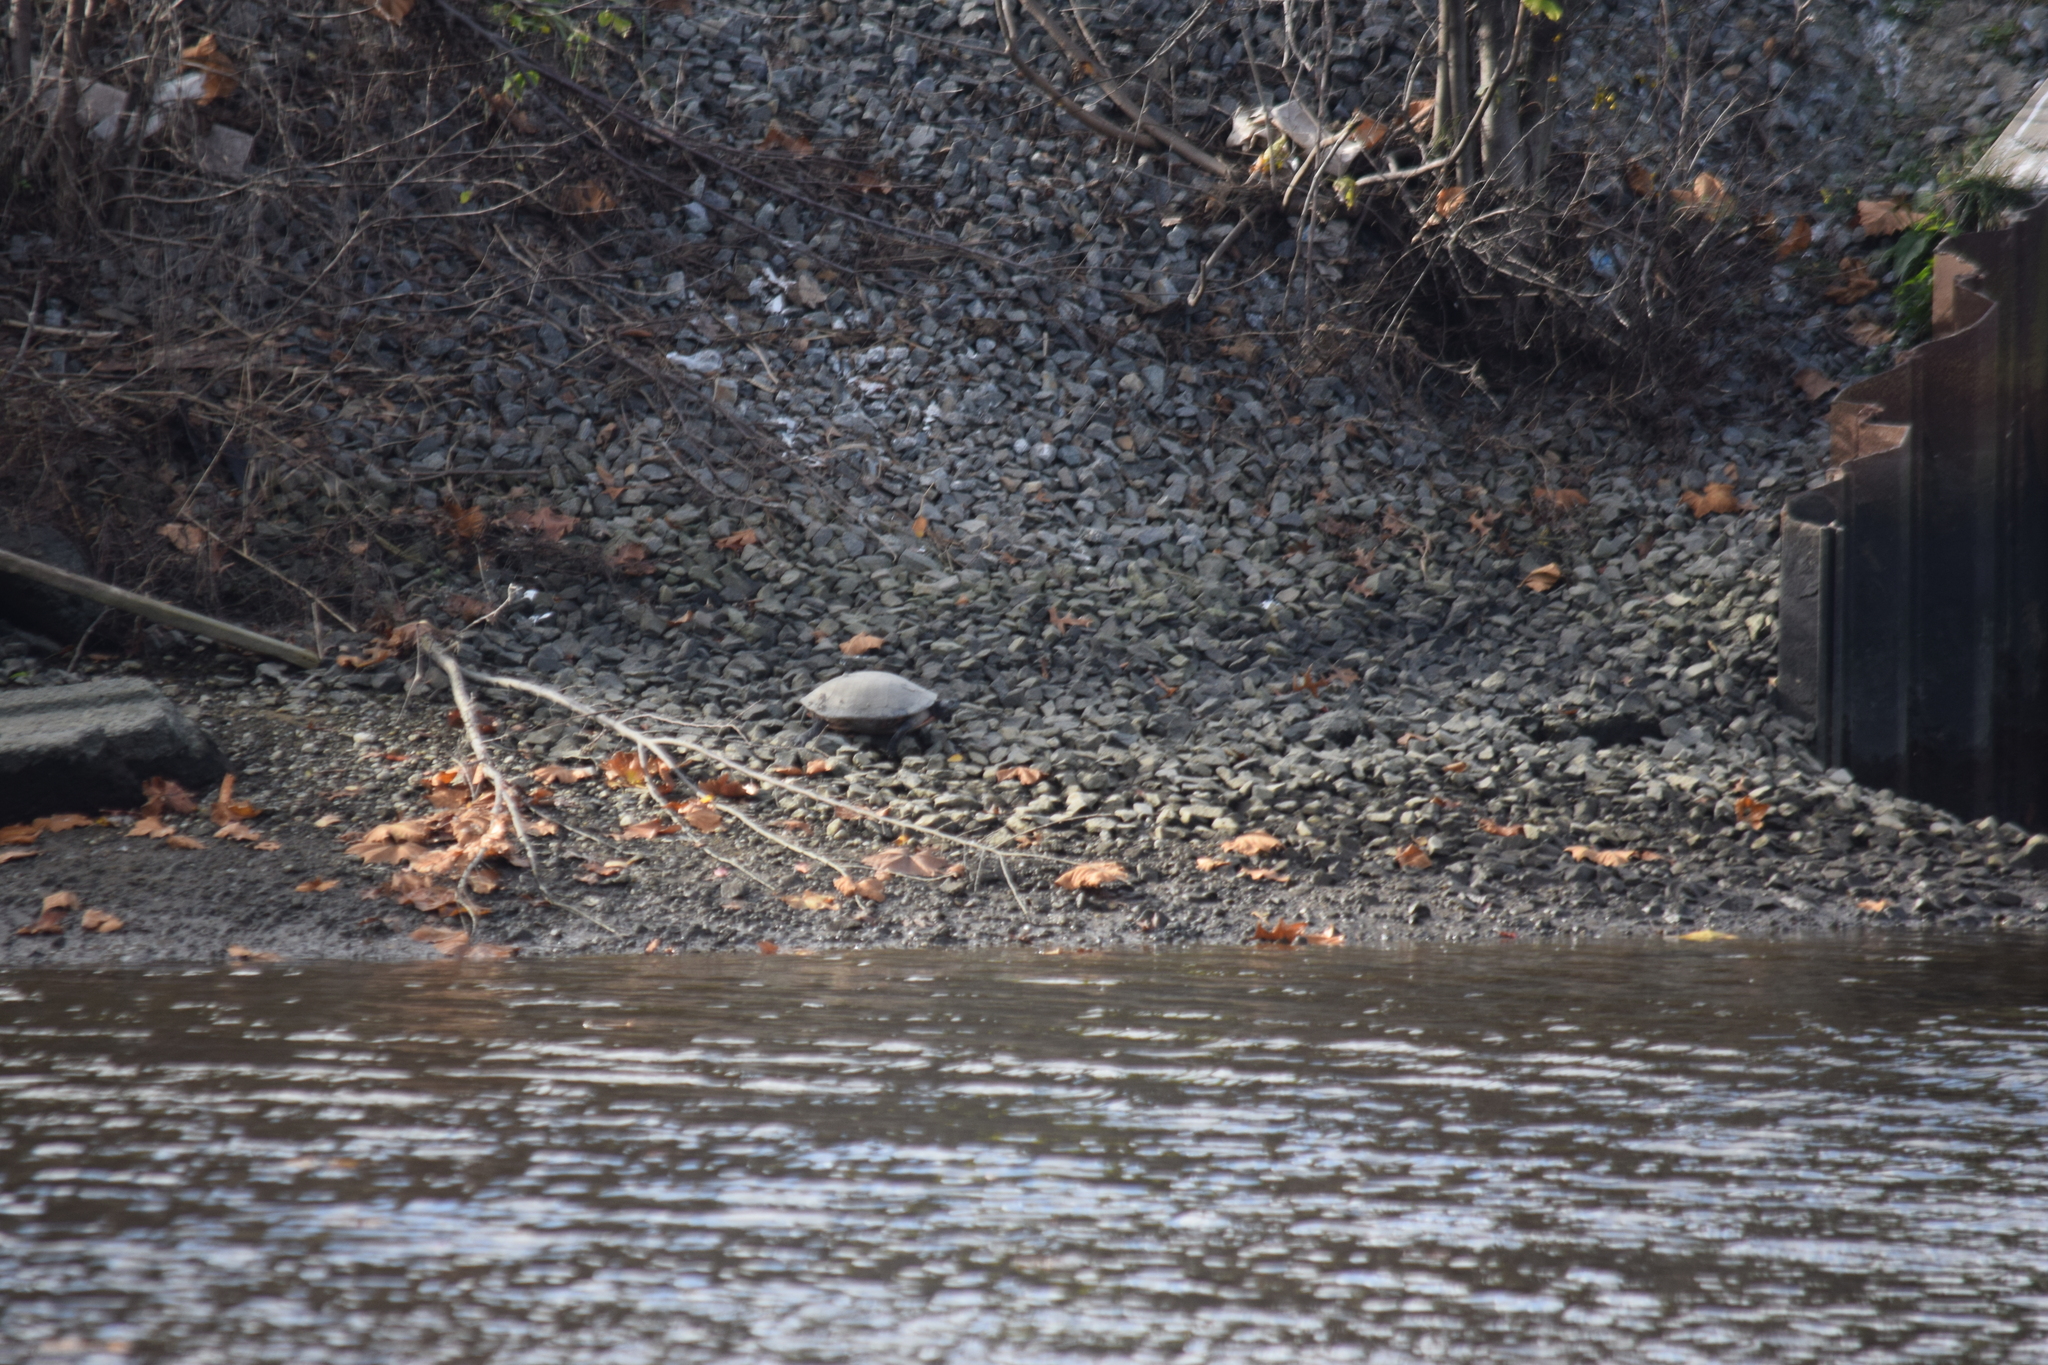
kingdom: Animalia
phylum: Chordata
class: Testudines
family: Emydidae
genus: Pseudemys
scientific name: Pseudemys rubriventris
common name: American red-bellied turtle
